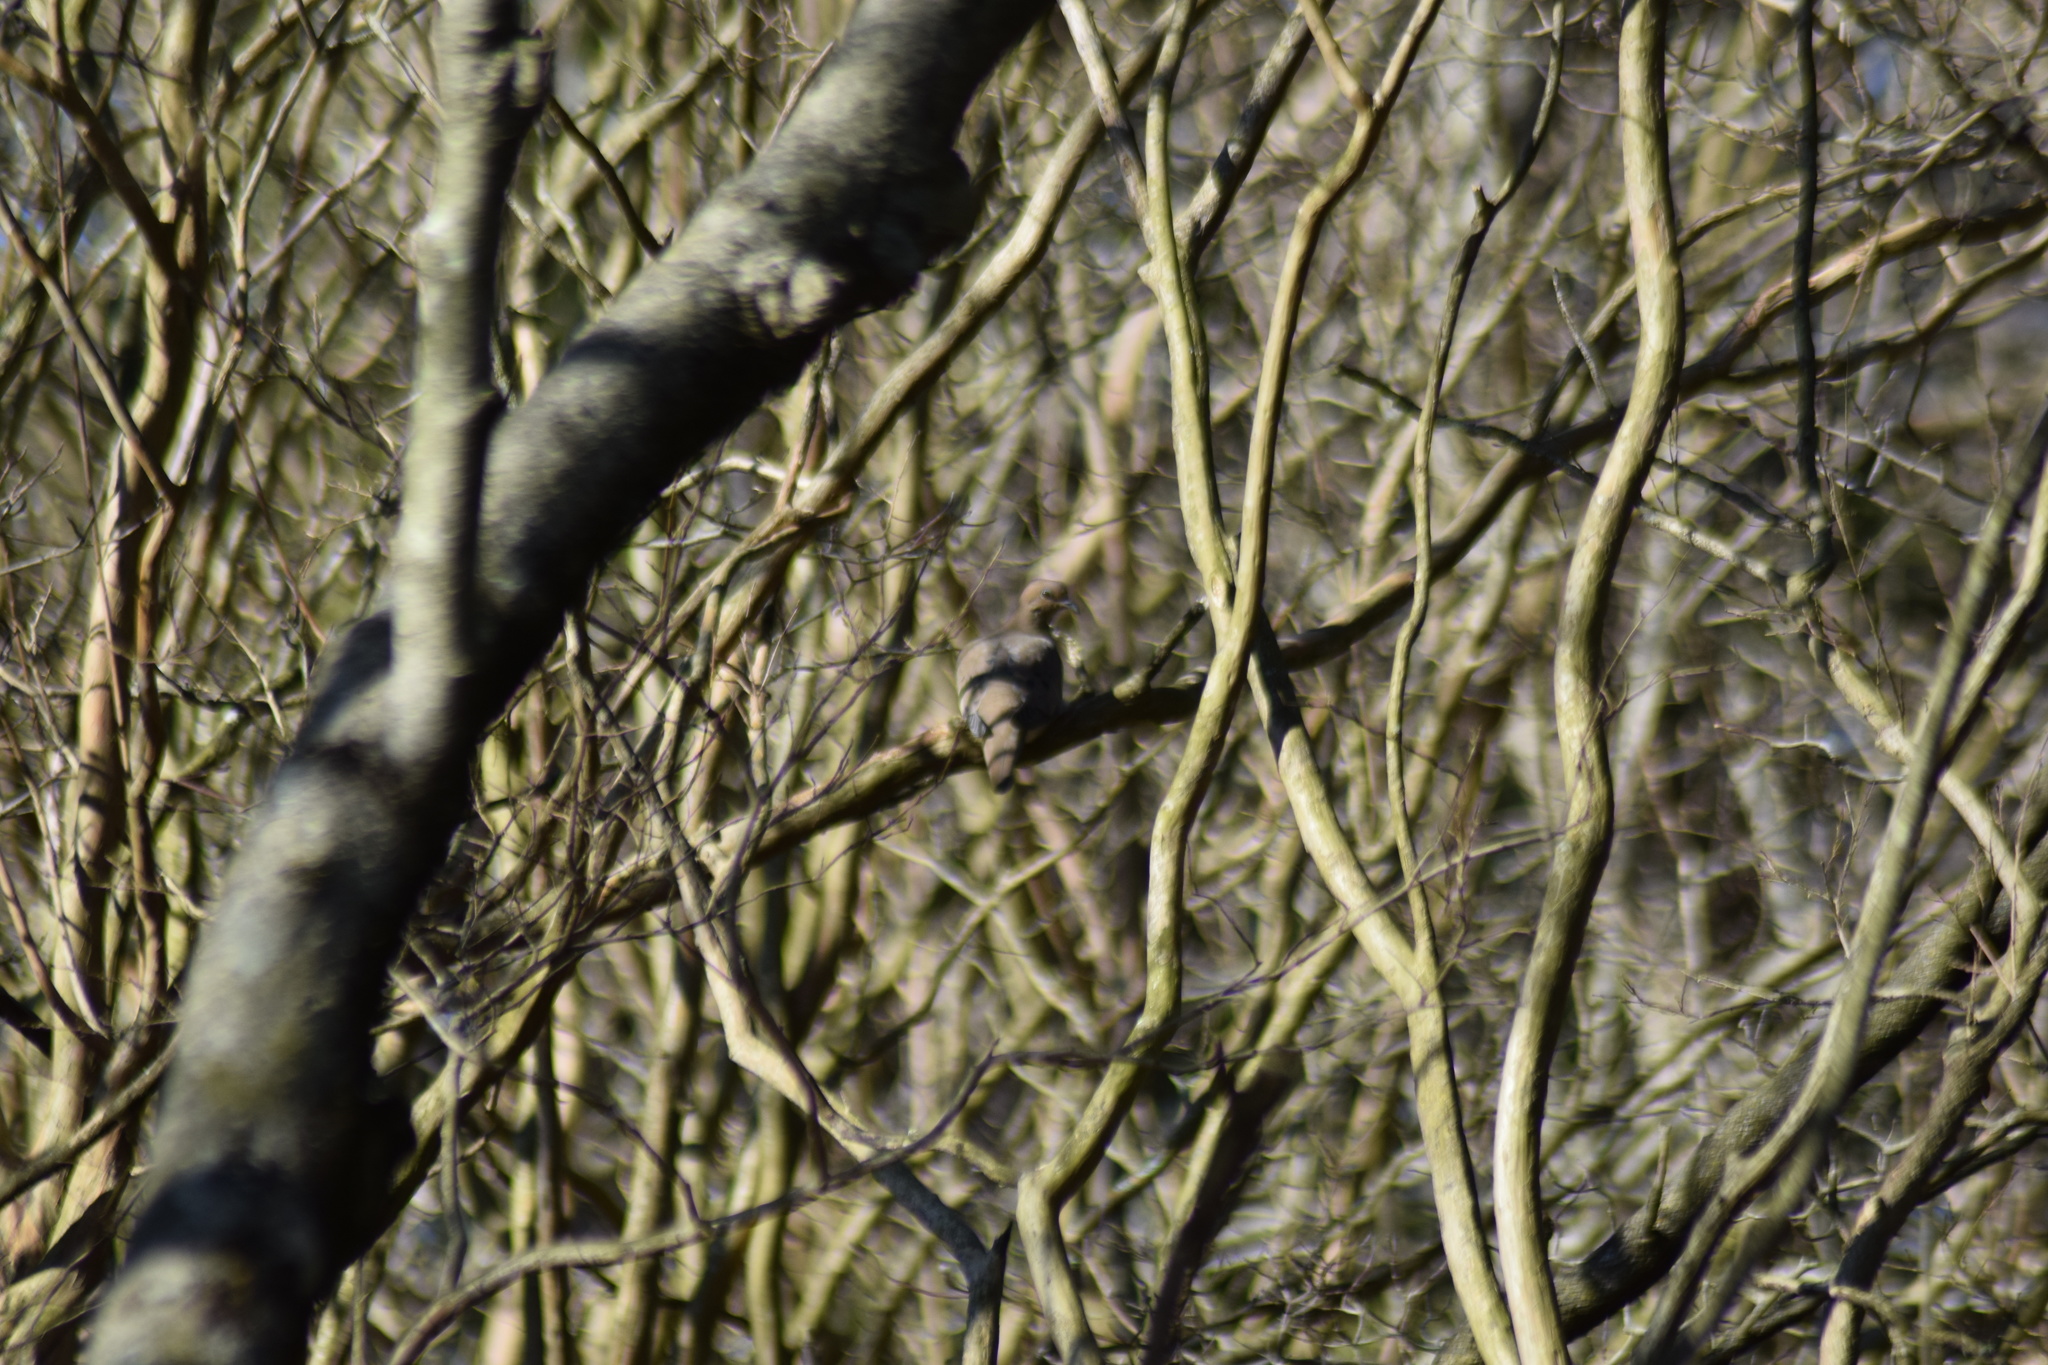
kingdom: Animalia
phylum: Chordata
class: Aves
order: Columbiformes
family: Columbidae
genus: Zenaida
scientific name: Zenaida macroura
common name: Mourning dove
